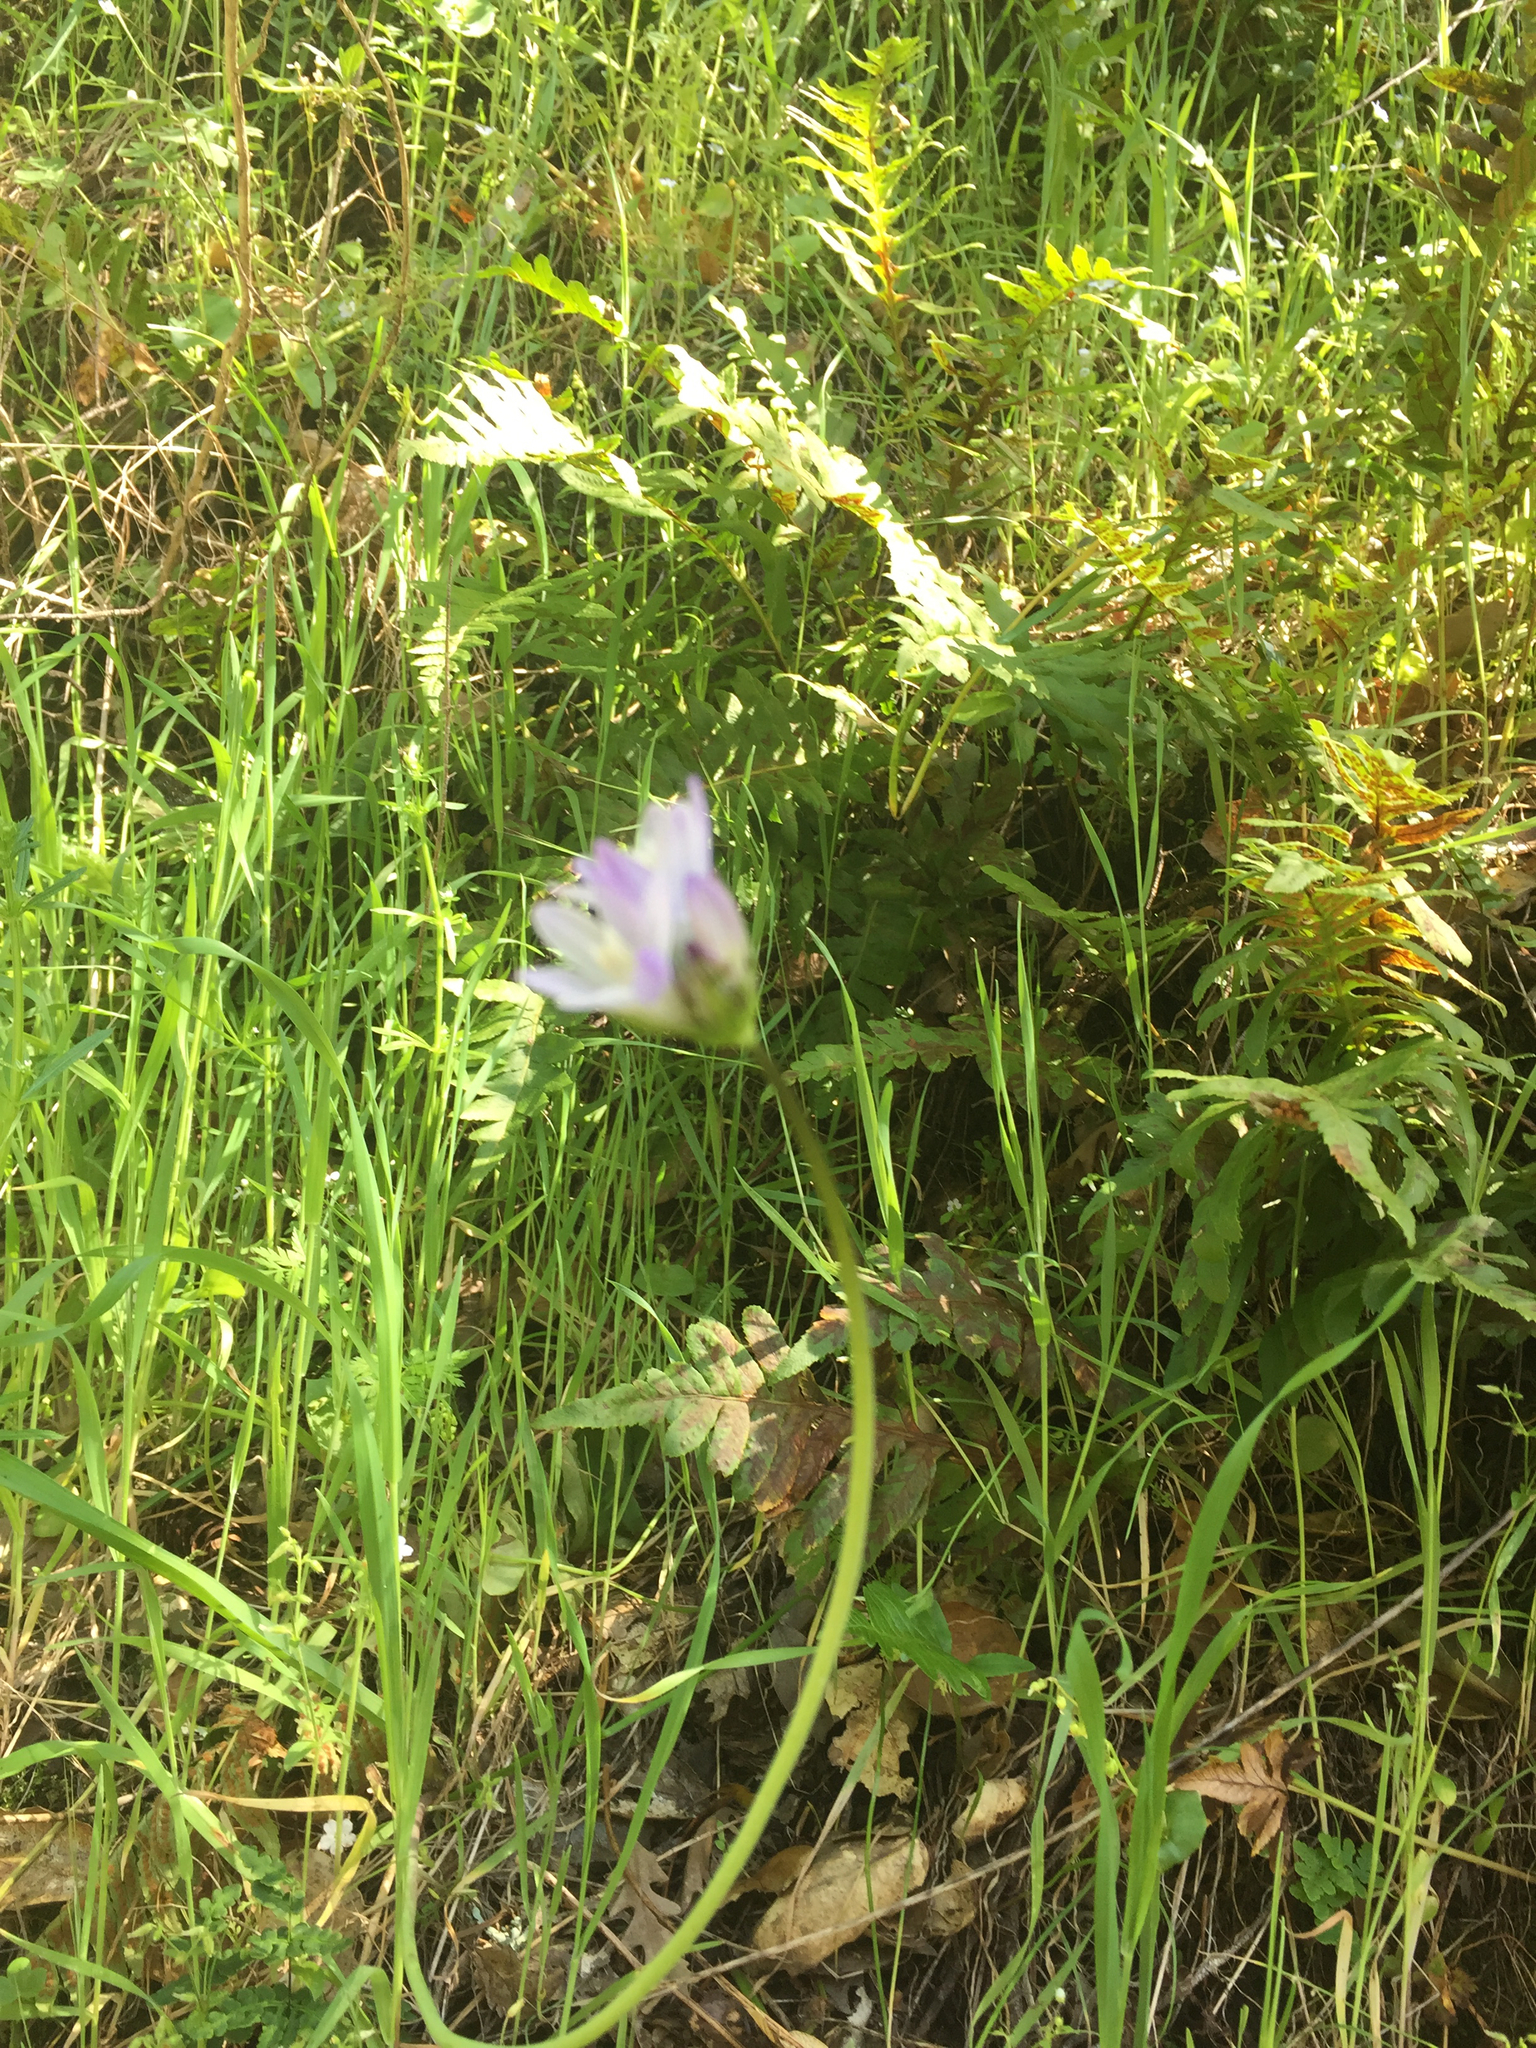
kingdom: Plantae
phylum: Tracheophyta
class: Liliopsida
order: Asparagales
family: Asparagaceae
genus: Dipterostemon
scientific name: Dipterostemon capitatus
